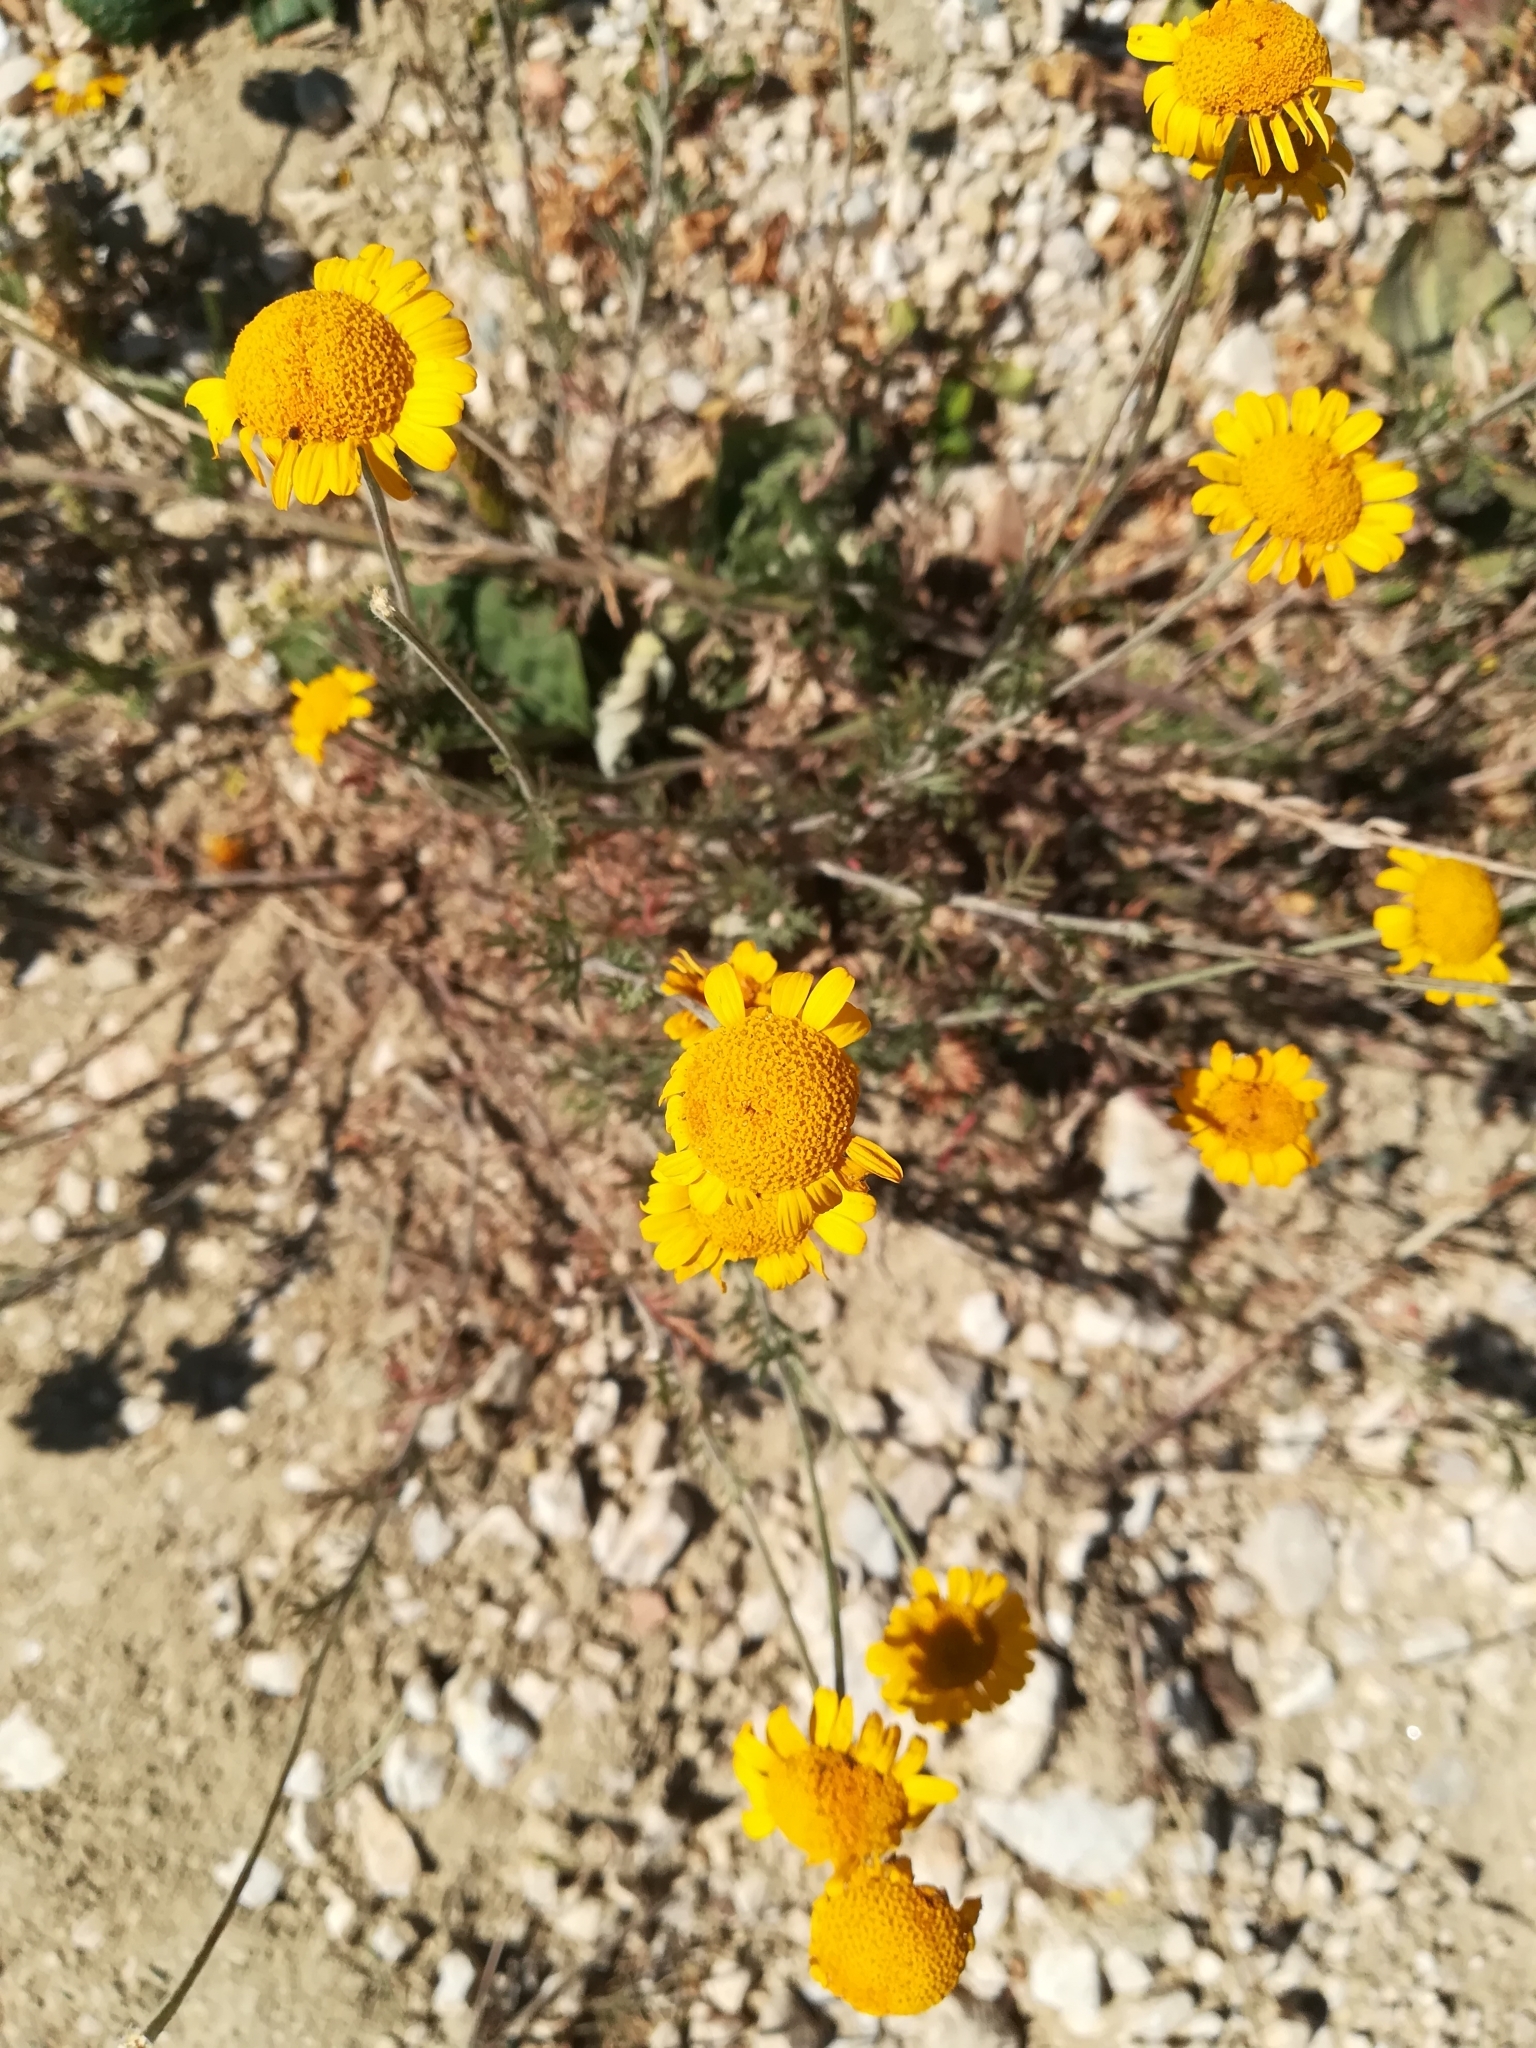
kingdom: Plantae
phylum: Tracheophyta
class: Magnoliopsida
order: Asterales
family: Asteraceae
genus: Cota
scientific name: Cota tinctoria
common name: Golden chamomile
